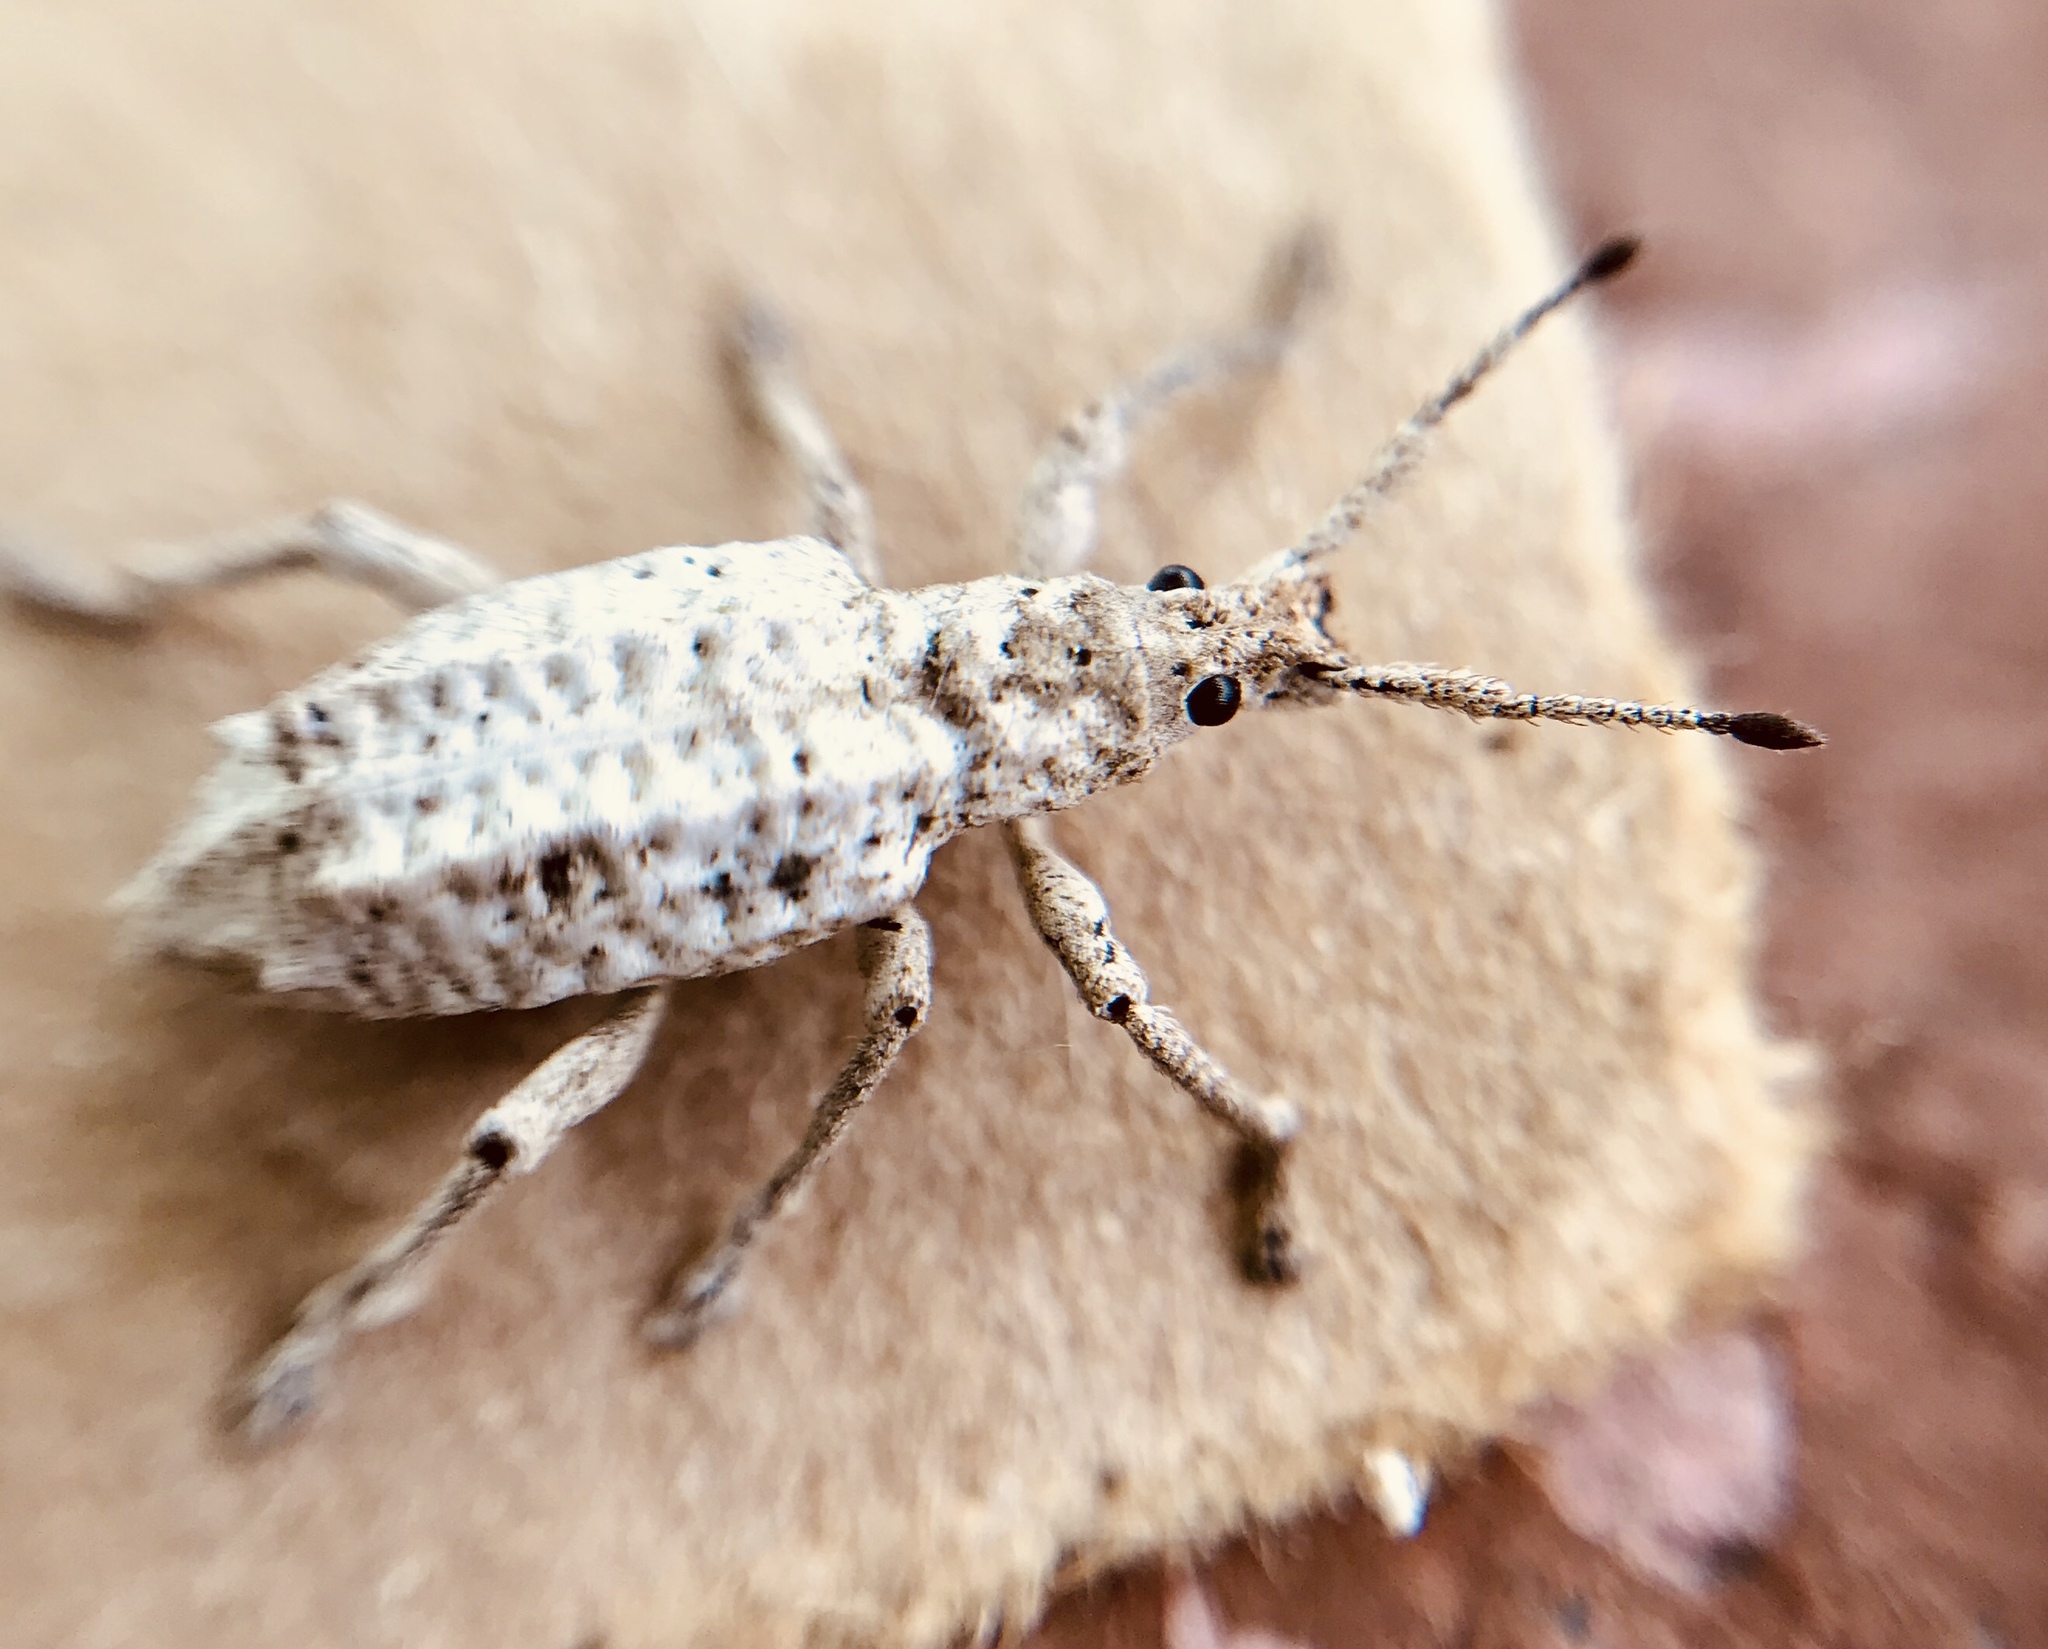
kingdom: Animalia
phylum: Arthropoda
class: Insecta
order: Coleoptera
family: Curculionidae
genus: Compsus
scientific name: Compsus niveus
